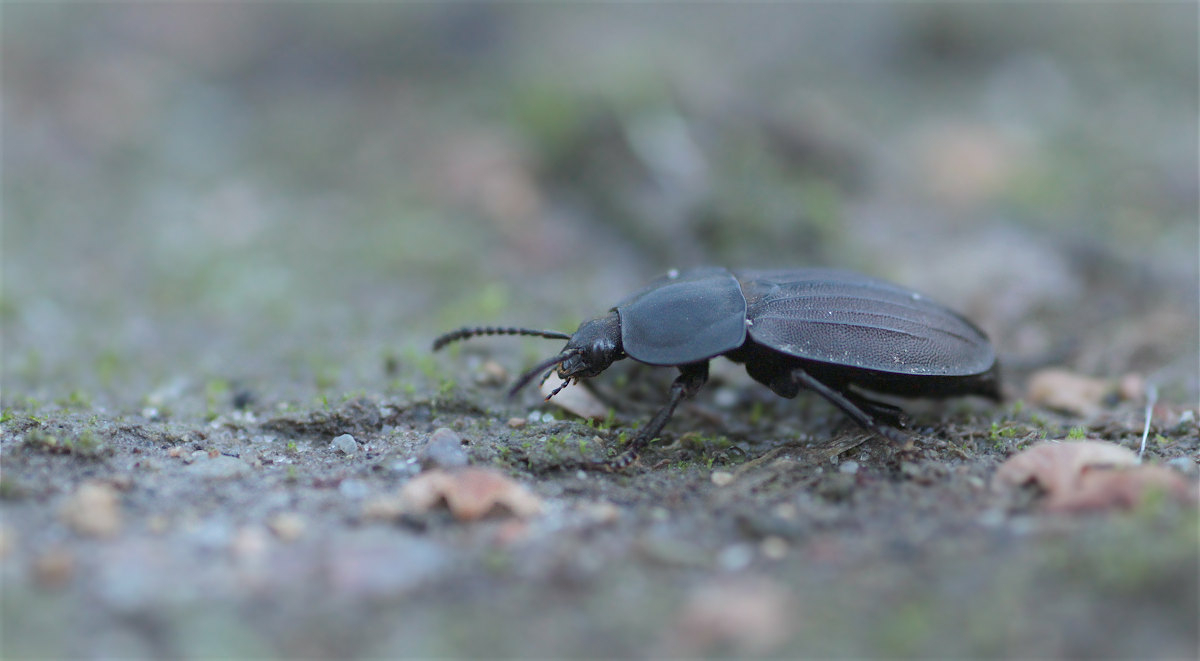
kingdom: Animalia
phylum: Arthropoda
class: Insecta
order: Coleoptera
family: Staphylinidae
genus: Silpha
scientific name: Silpha carinata
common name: Silphid beetle
